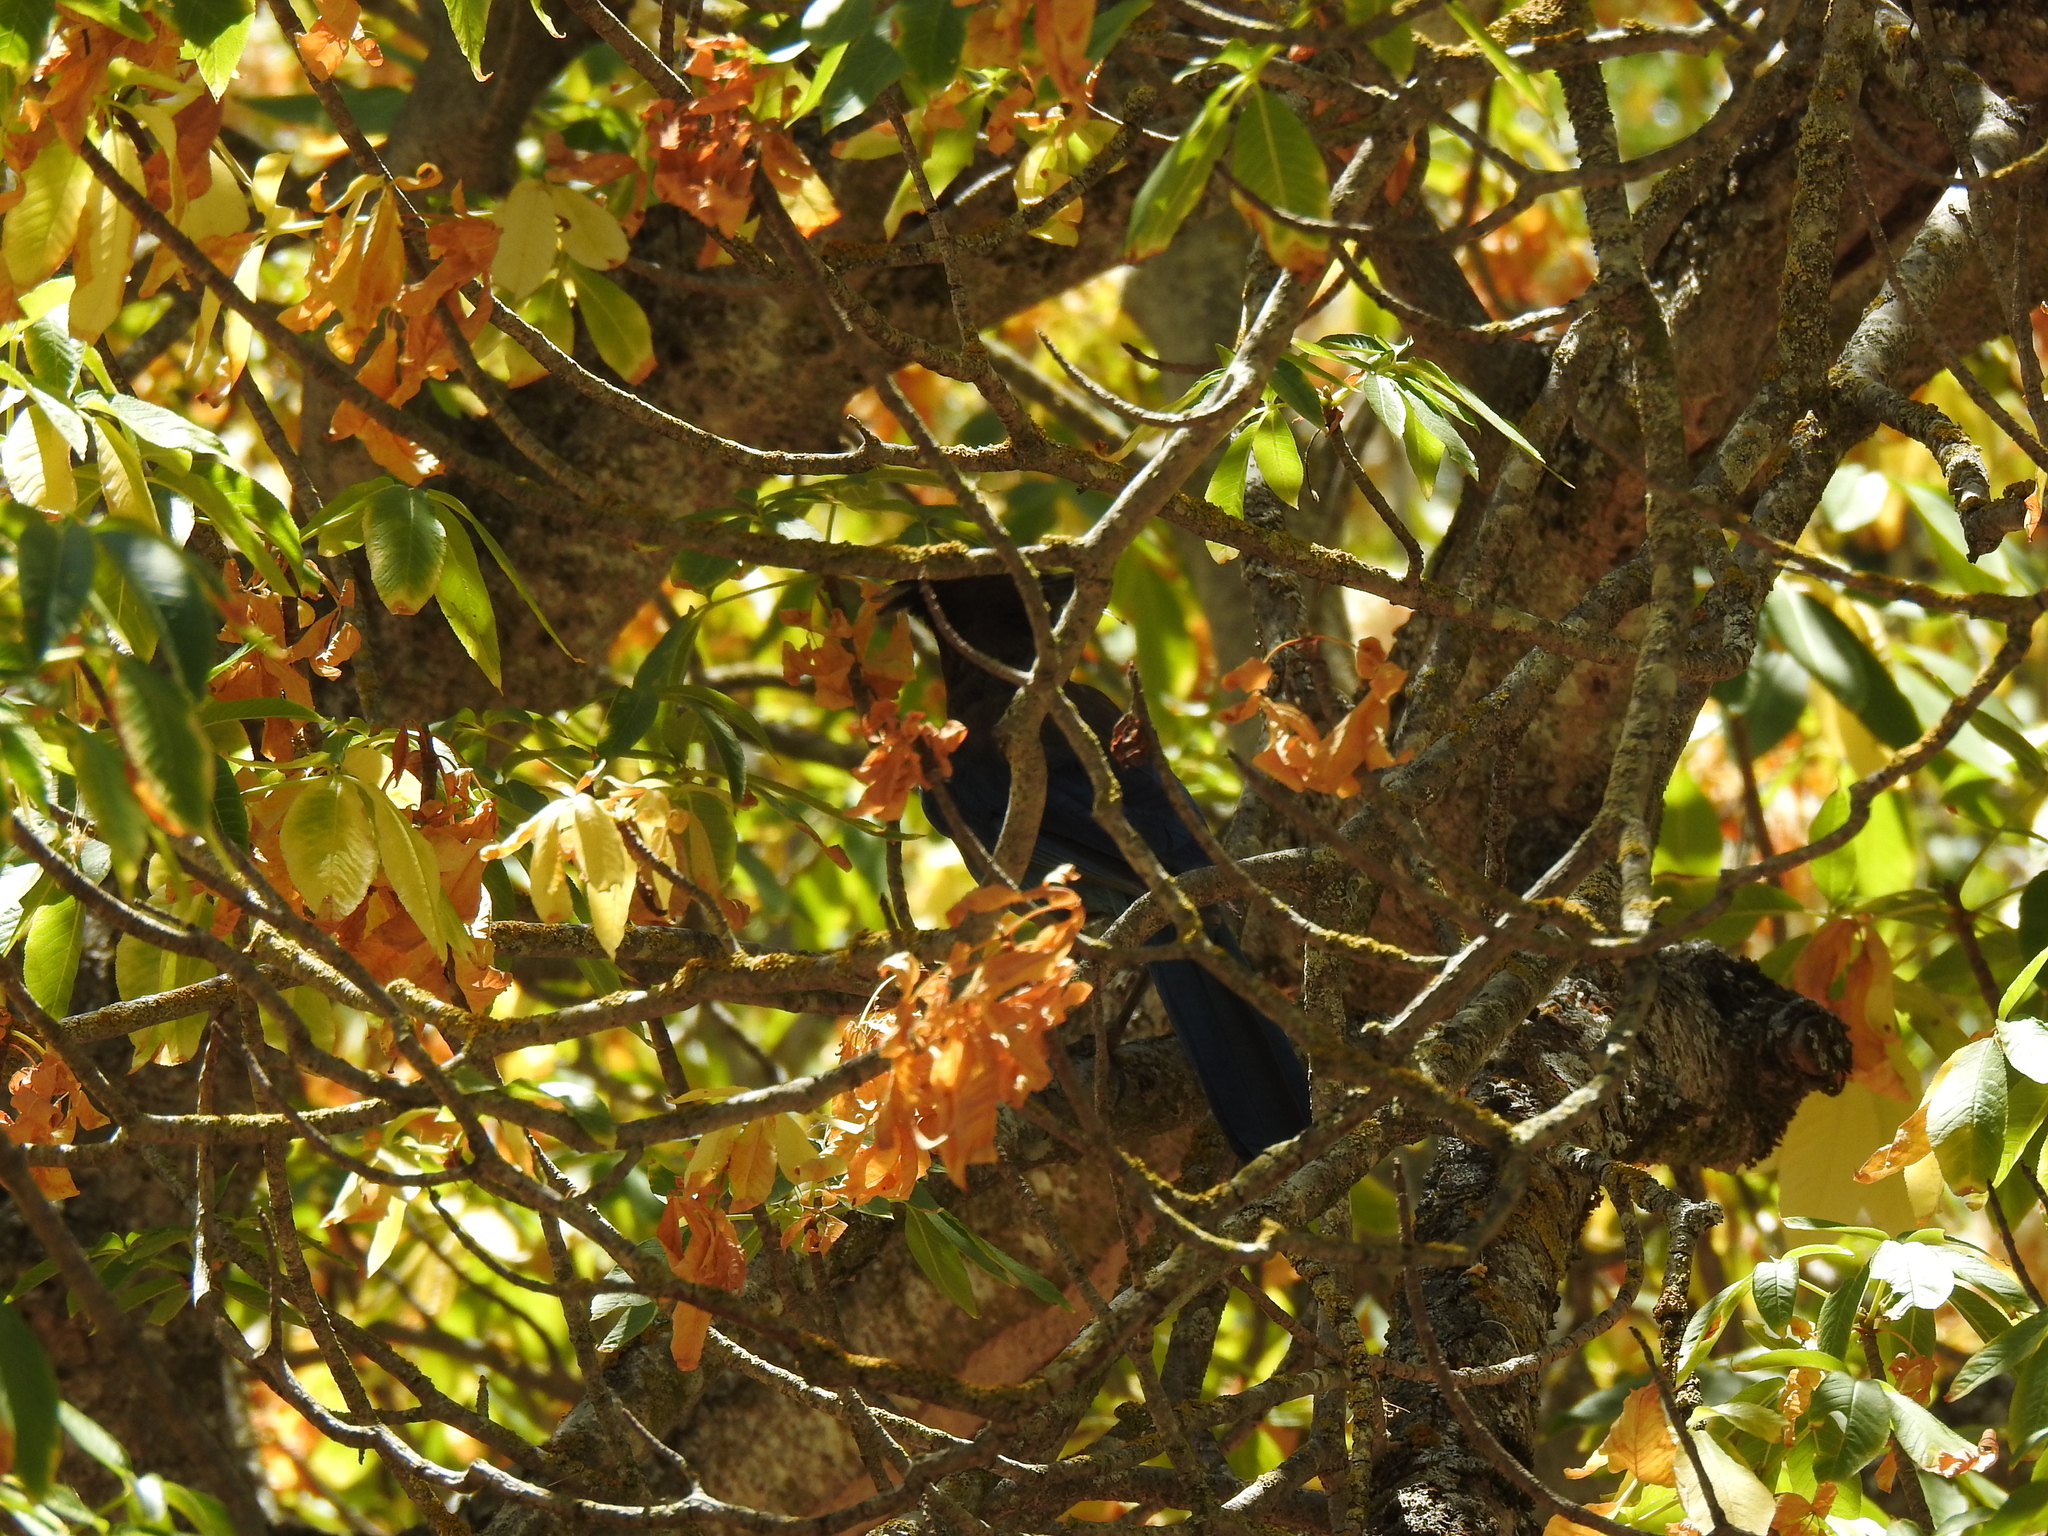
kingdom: Animalia
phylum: Chordata
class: Aves
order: Passeriformes
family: Corvidae
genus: Cyanocitta
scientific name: Cyanocitta stelleri
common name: Steller's jay
